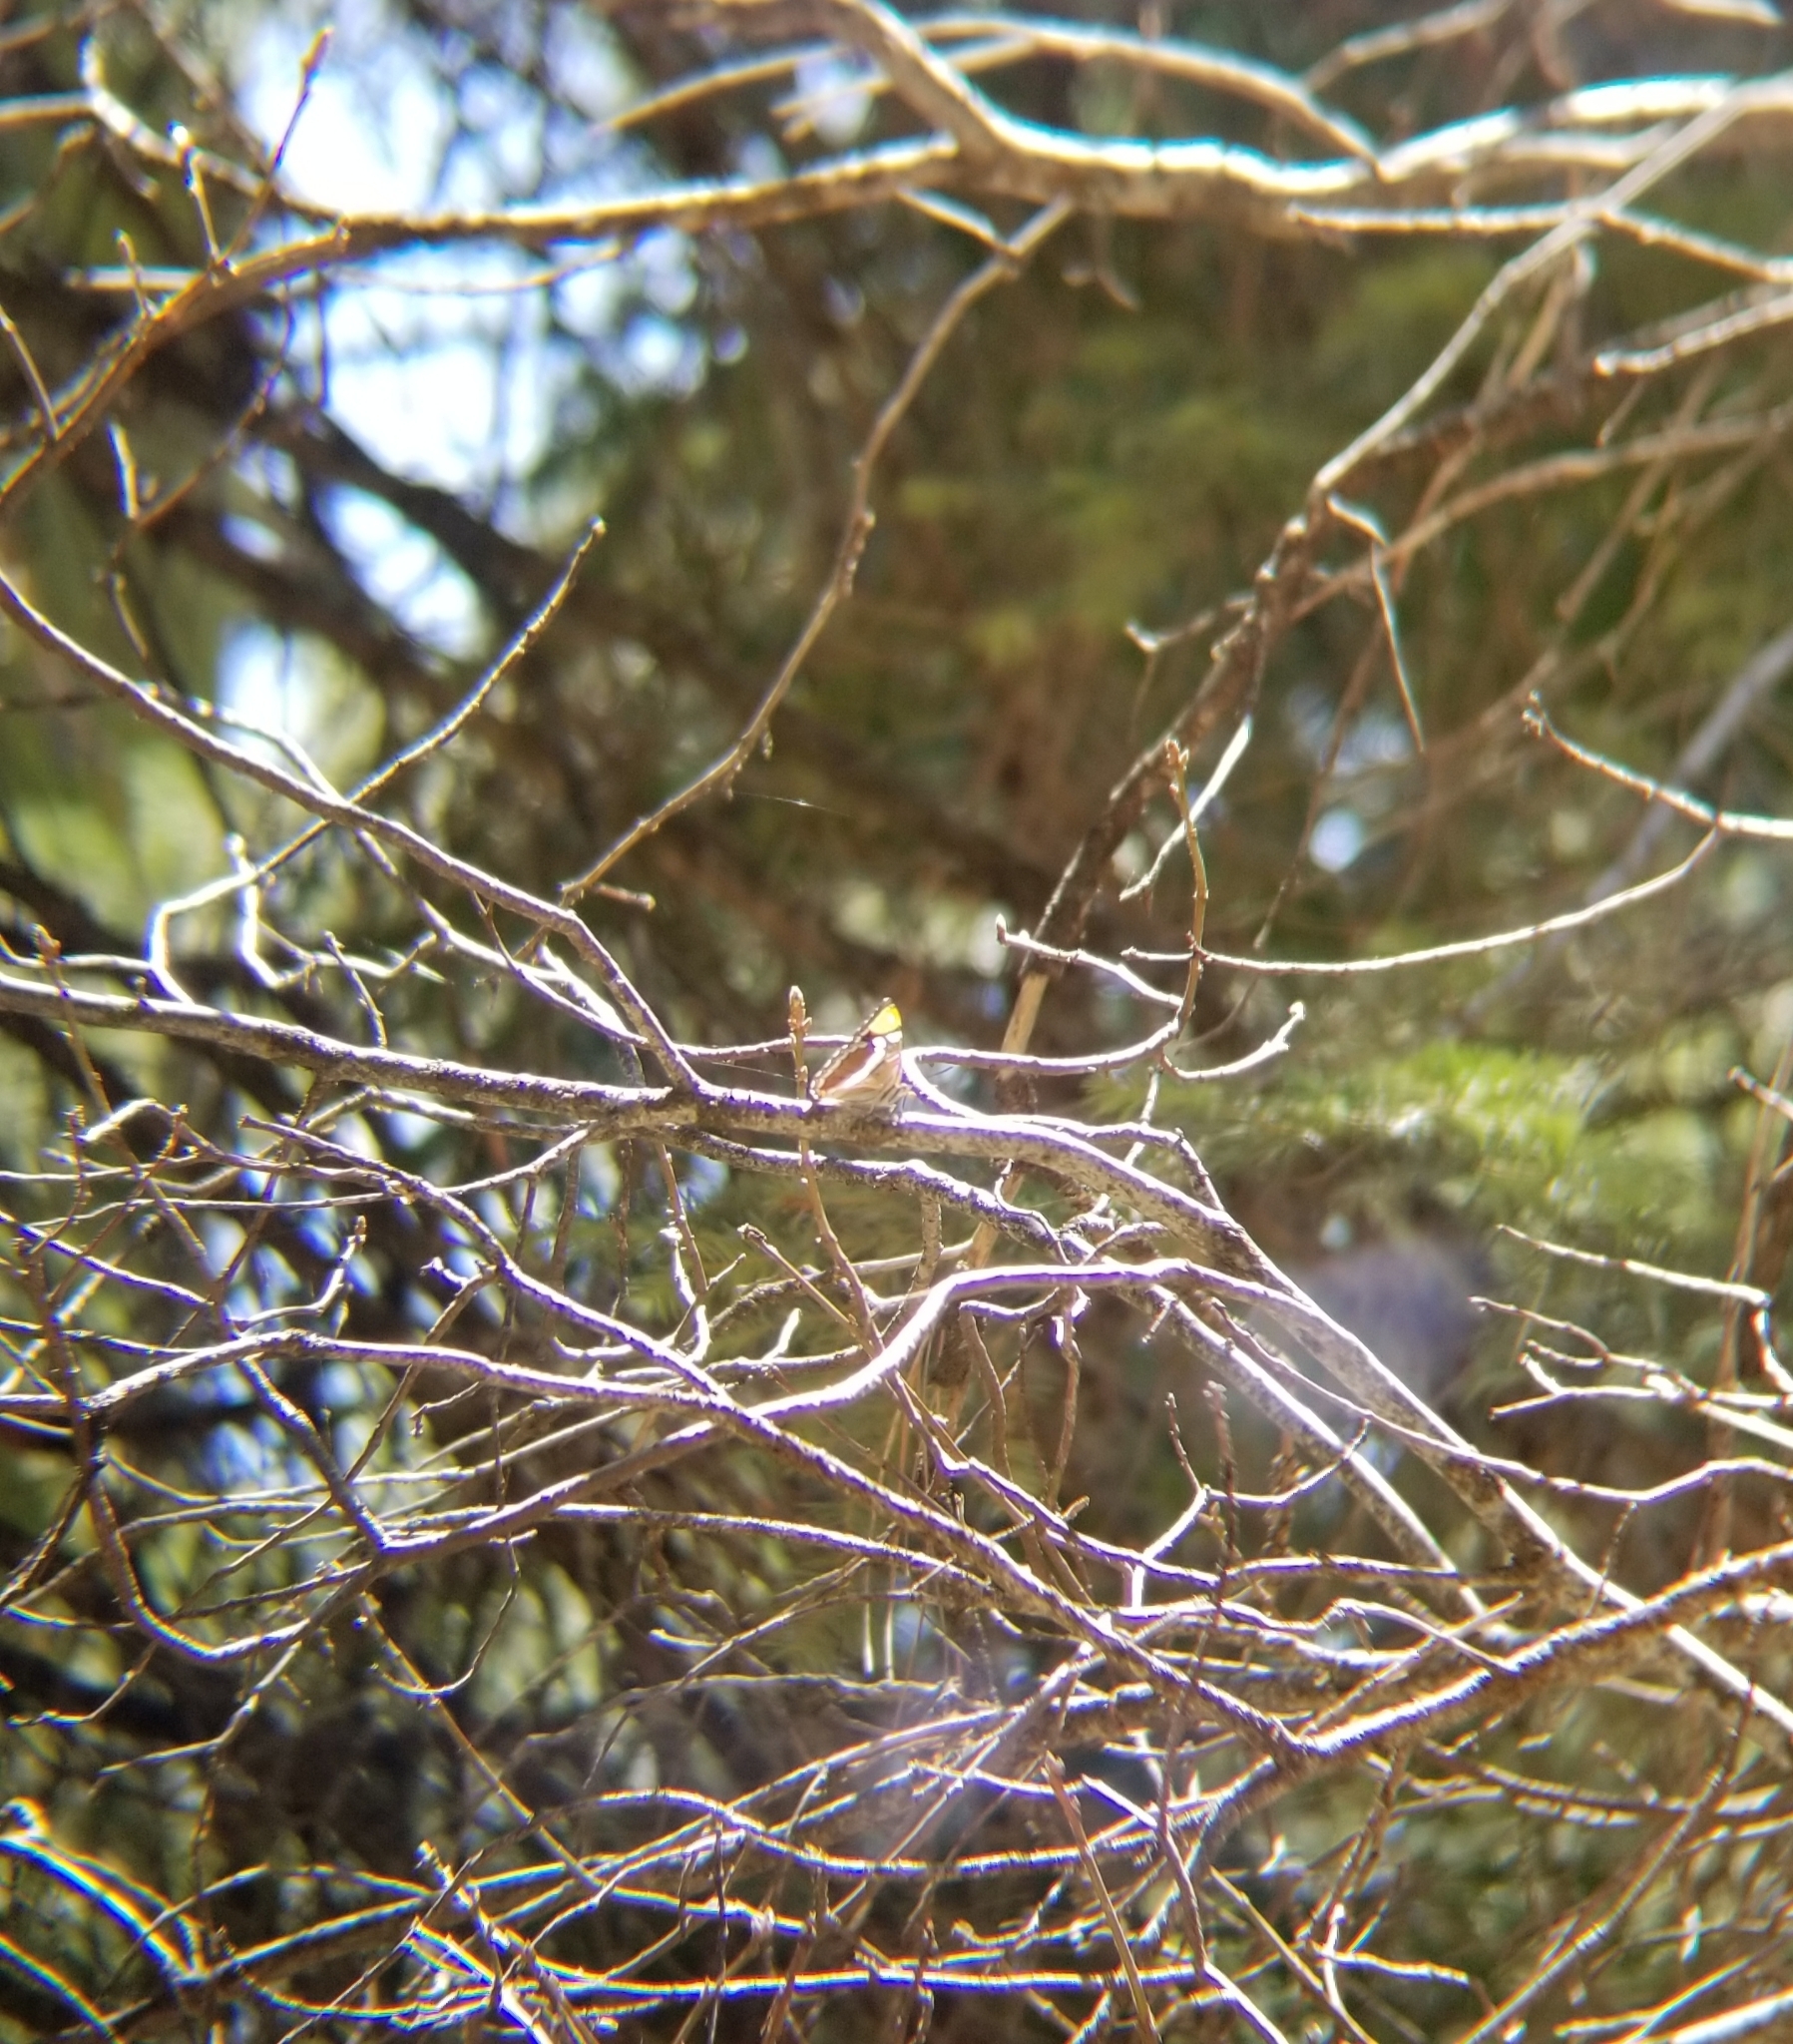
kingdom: Animalia
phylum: Arthropoda
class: Insecta
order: Lepidoptera
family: Nymphalidae
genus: Limenitis
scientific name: Limenitis bredowii
